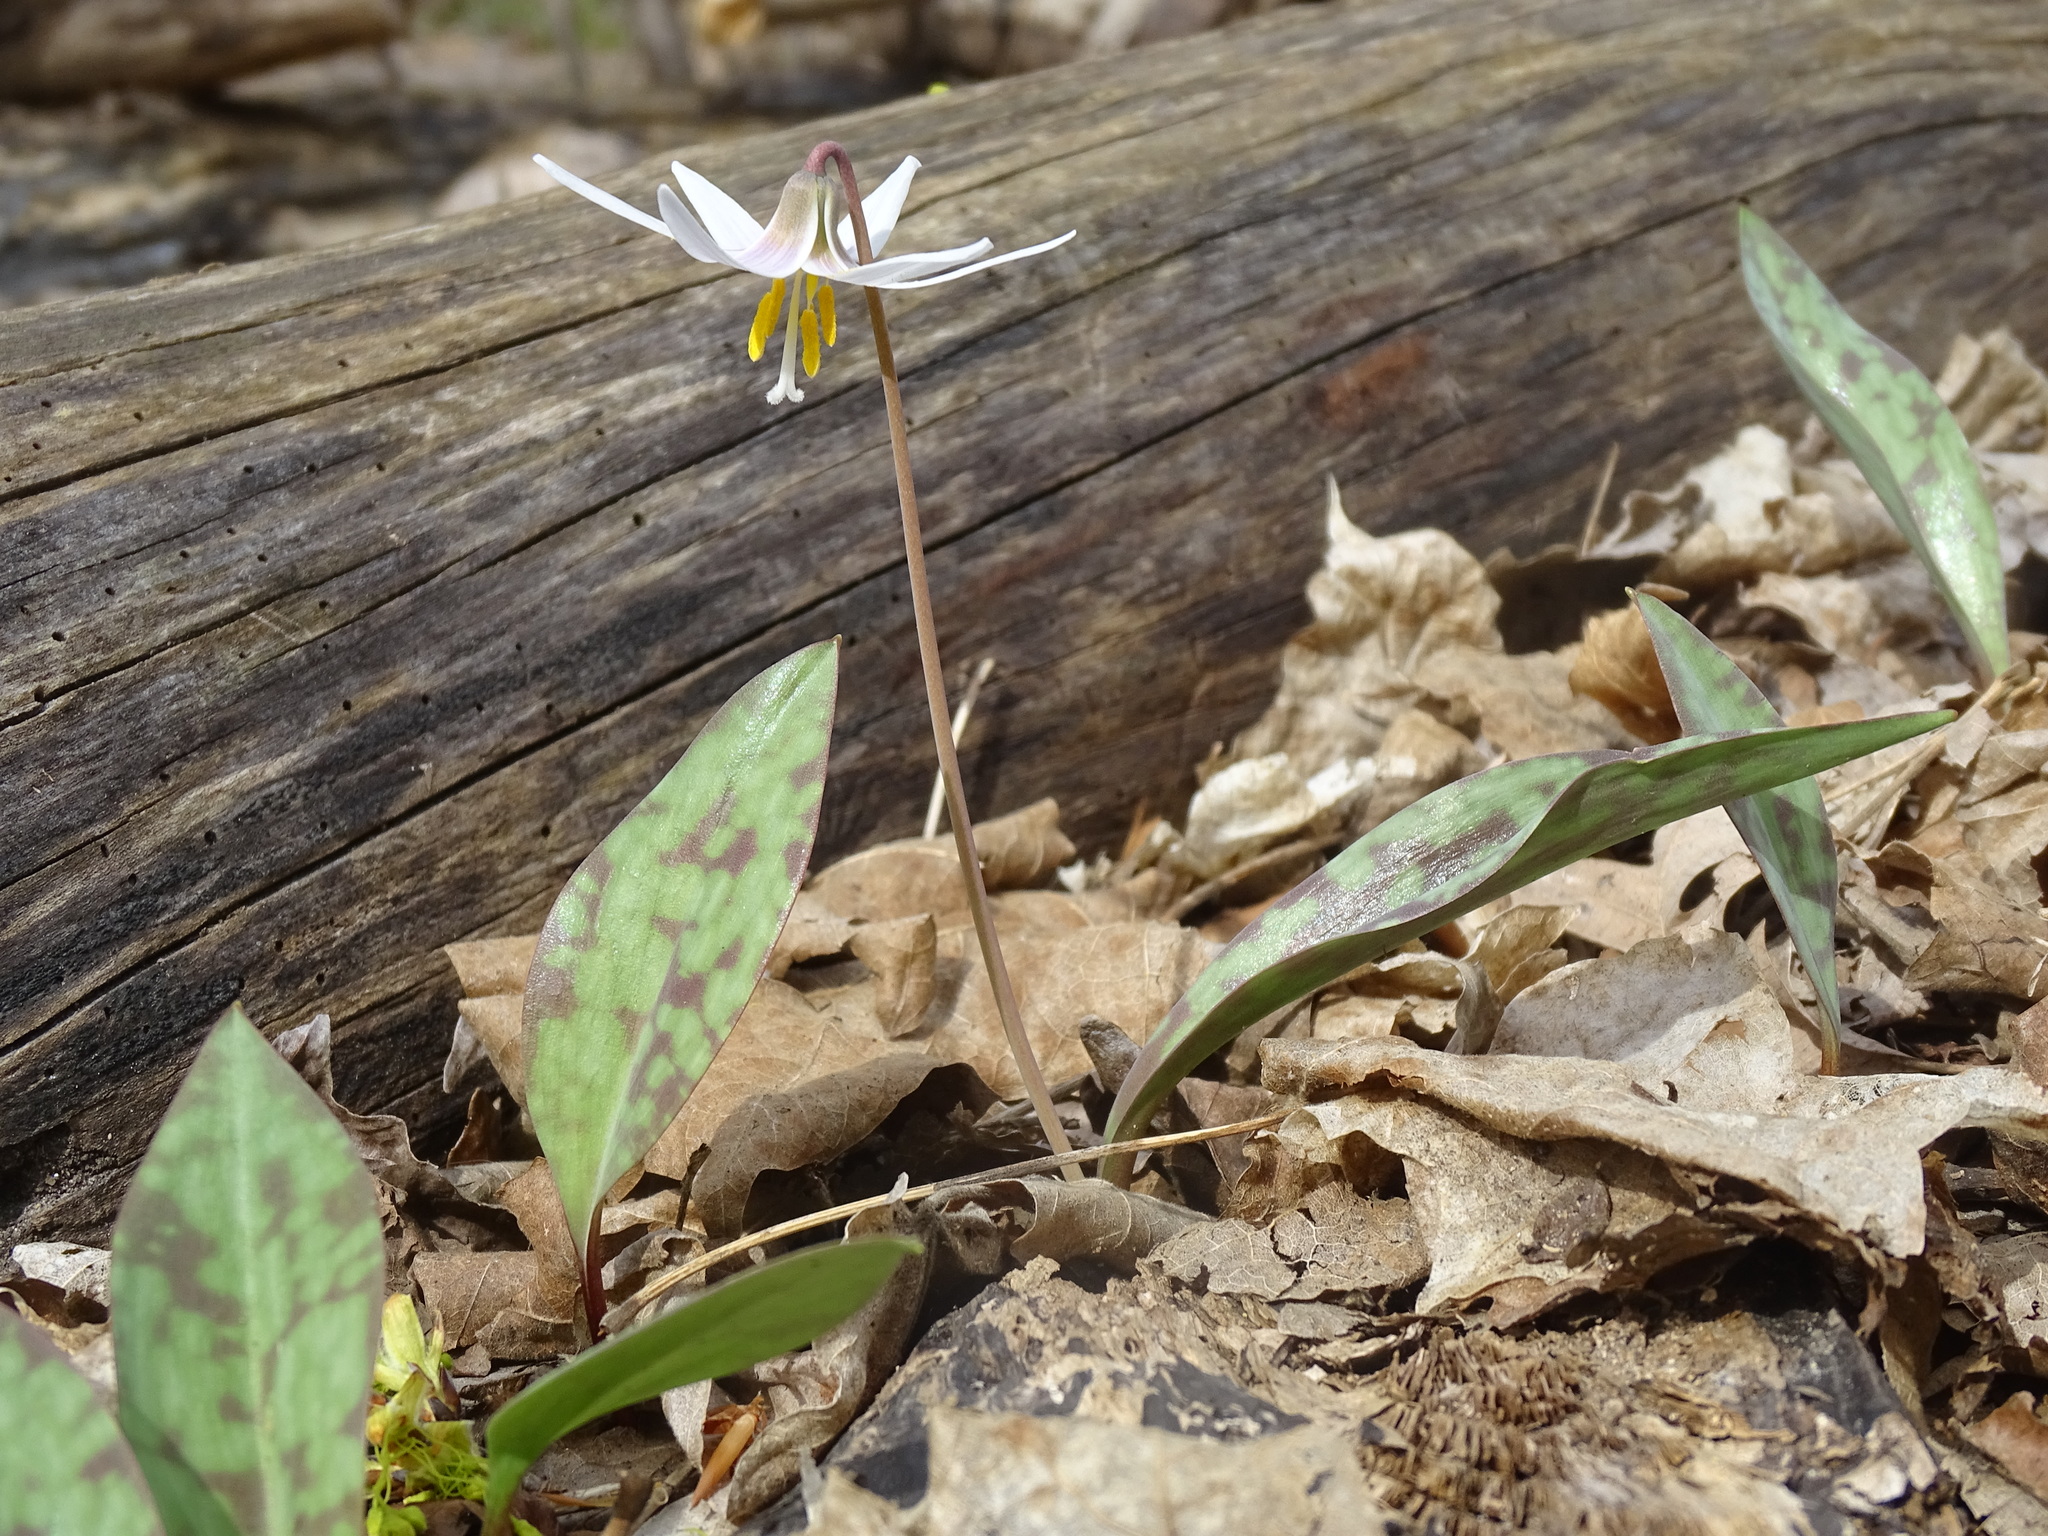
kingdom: Plantae
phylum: Tracheophyta
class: Liliopsida
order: Liliales
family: Liliaceae
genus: Erythronium
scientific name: Erythronium albidum
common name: White trout-lily
